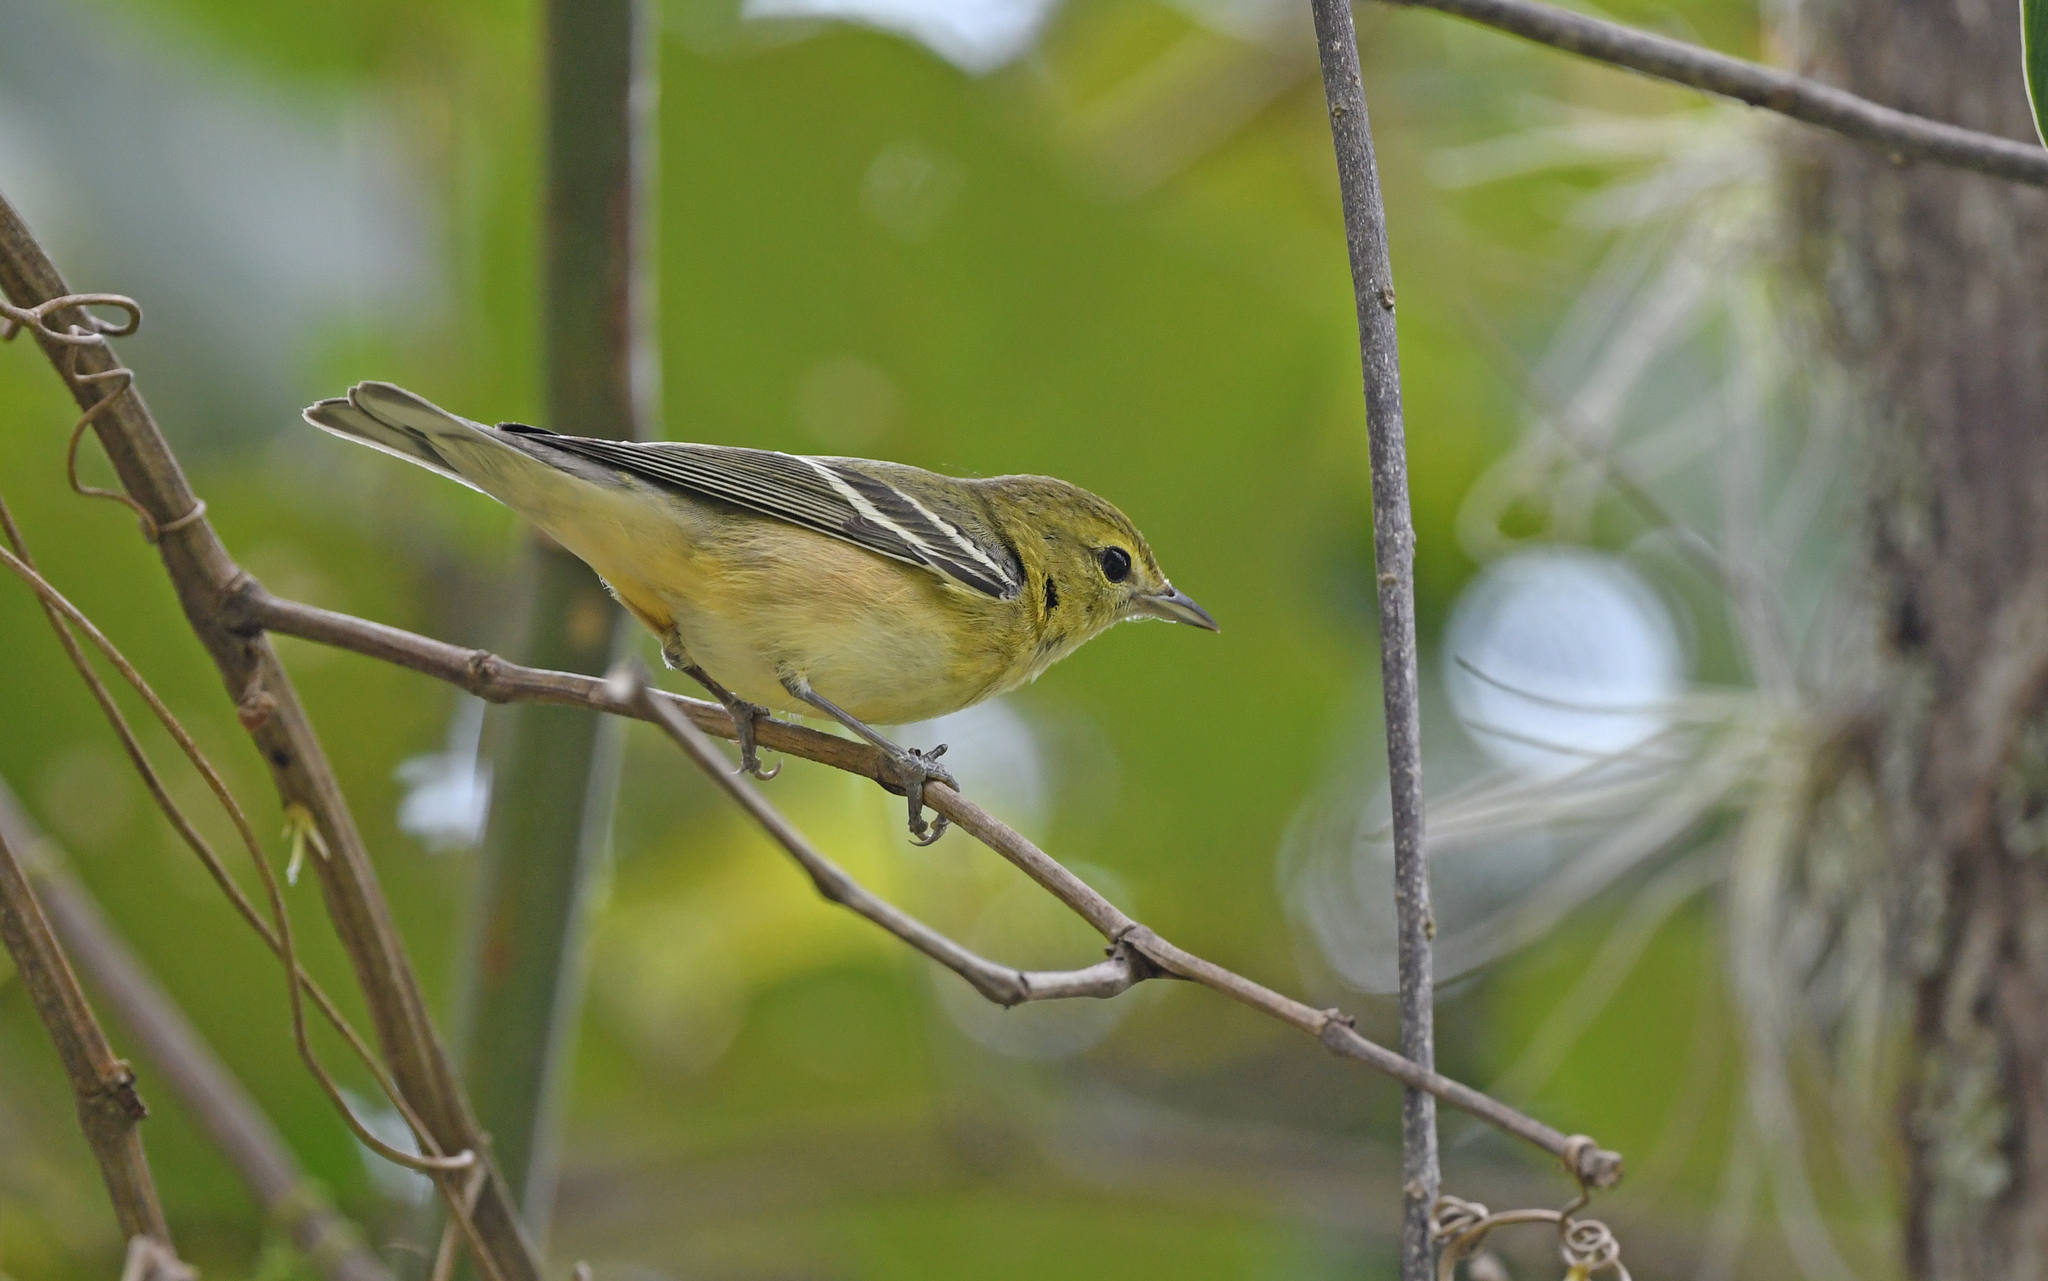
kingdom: Animalia
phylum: Chordata
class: Aves
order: Passeriformes
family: Parulidae
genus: Setophaga
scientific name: Setophaga castanea
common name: Bay-breasted warbler
